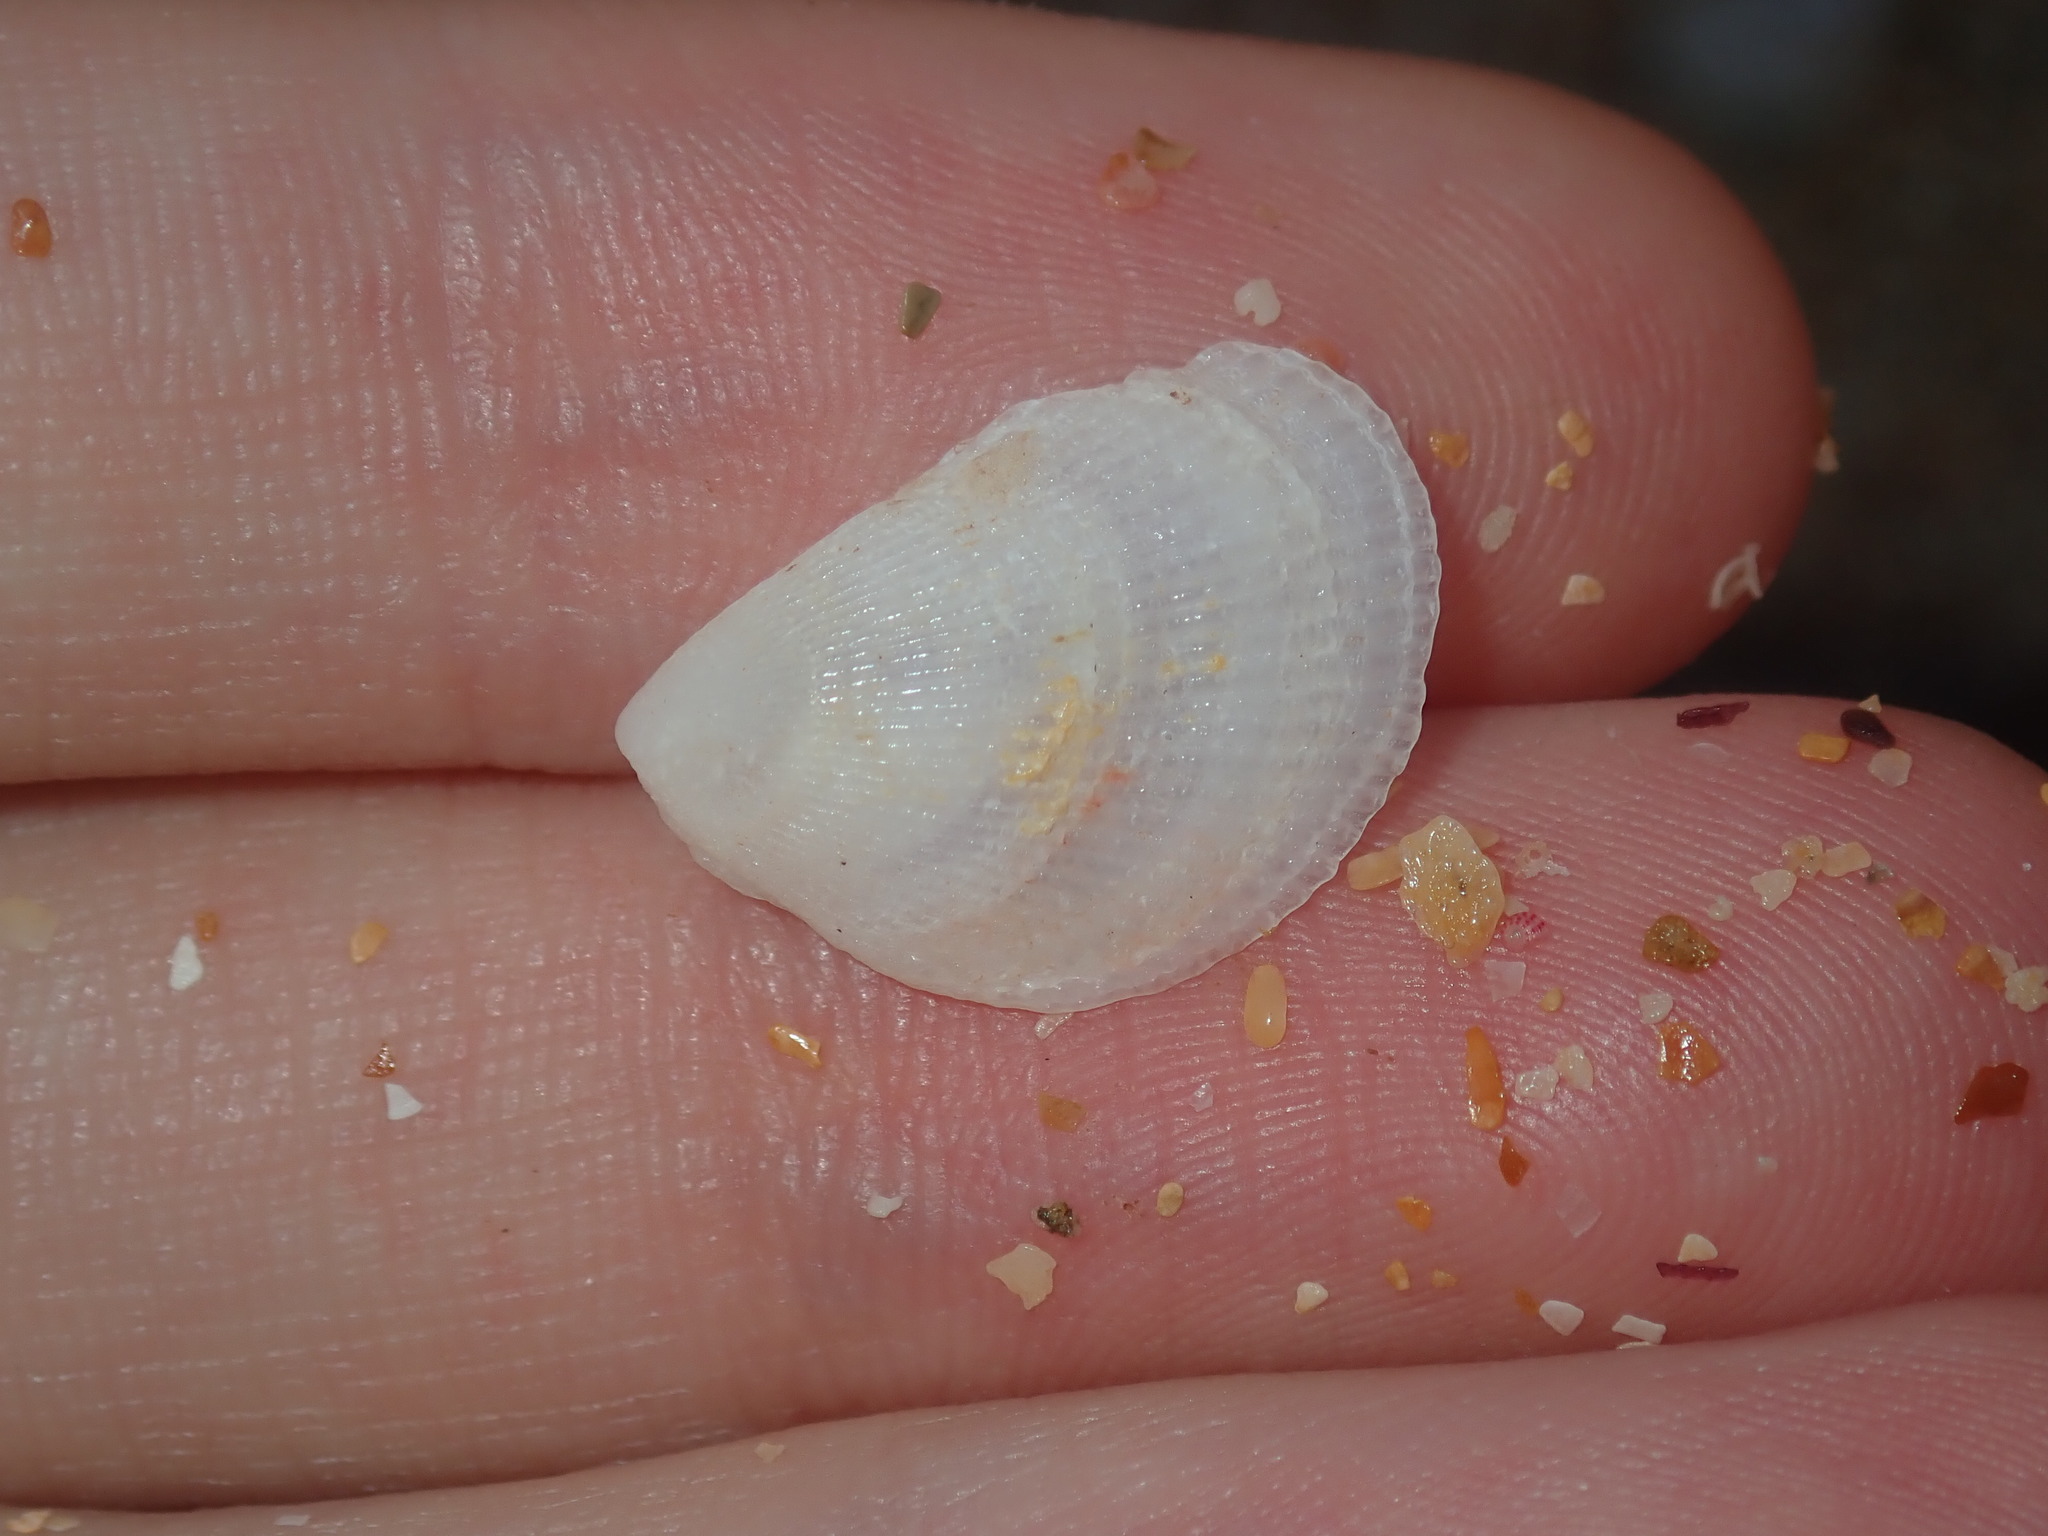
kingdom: Animalia
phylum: Mollusca
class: Bivalvia
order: Limida
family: Limidae
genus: Lima
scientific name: Lima nimbifer
